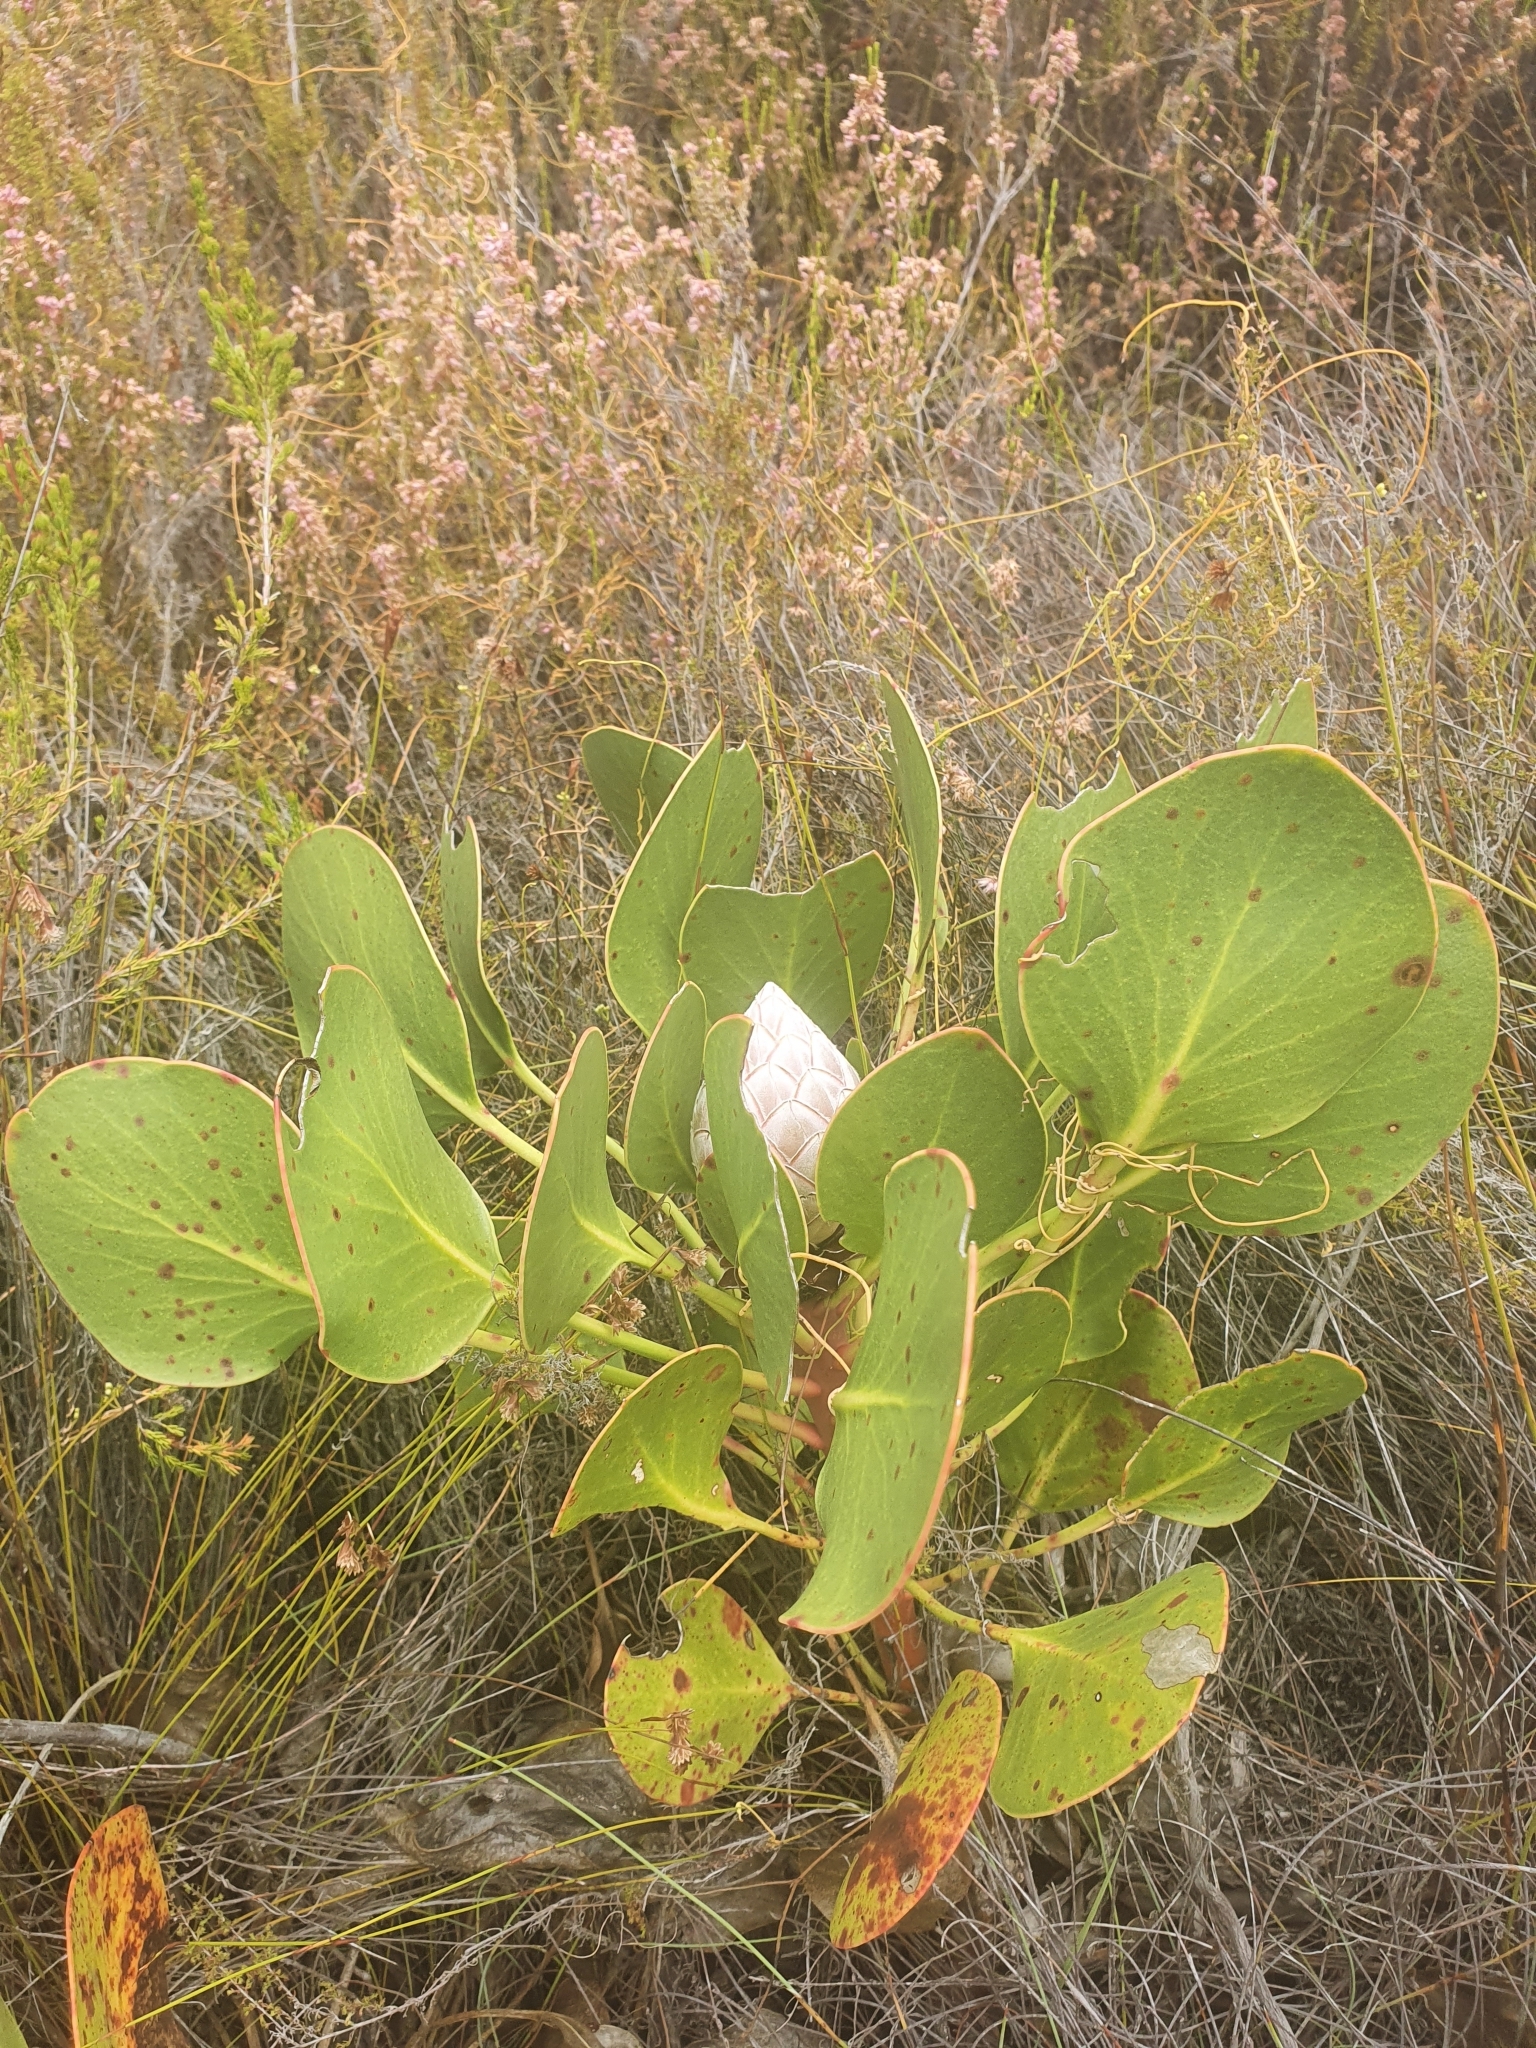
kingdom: Plantae
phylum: Tracheophyta
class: Magnoliopsida
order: Proteales
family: Proteaceae
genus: Protea
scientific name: Protea cynaroides
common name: King protea
